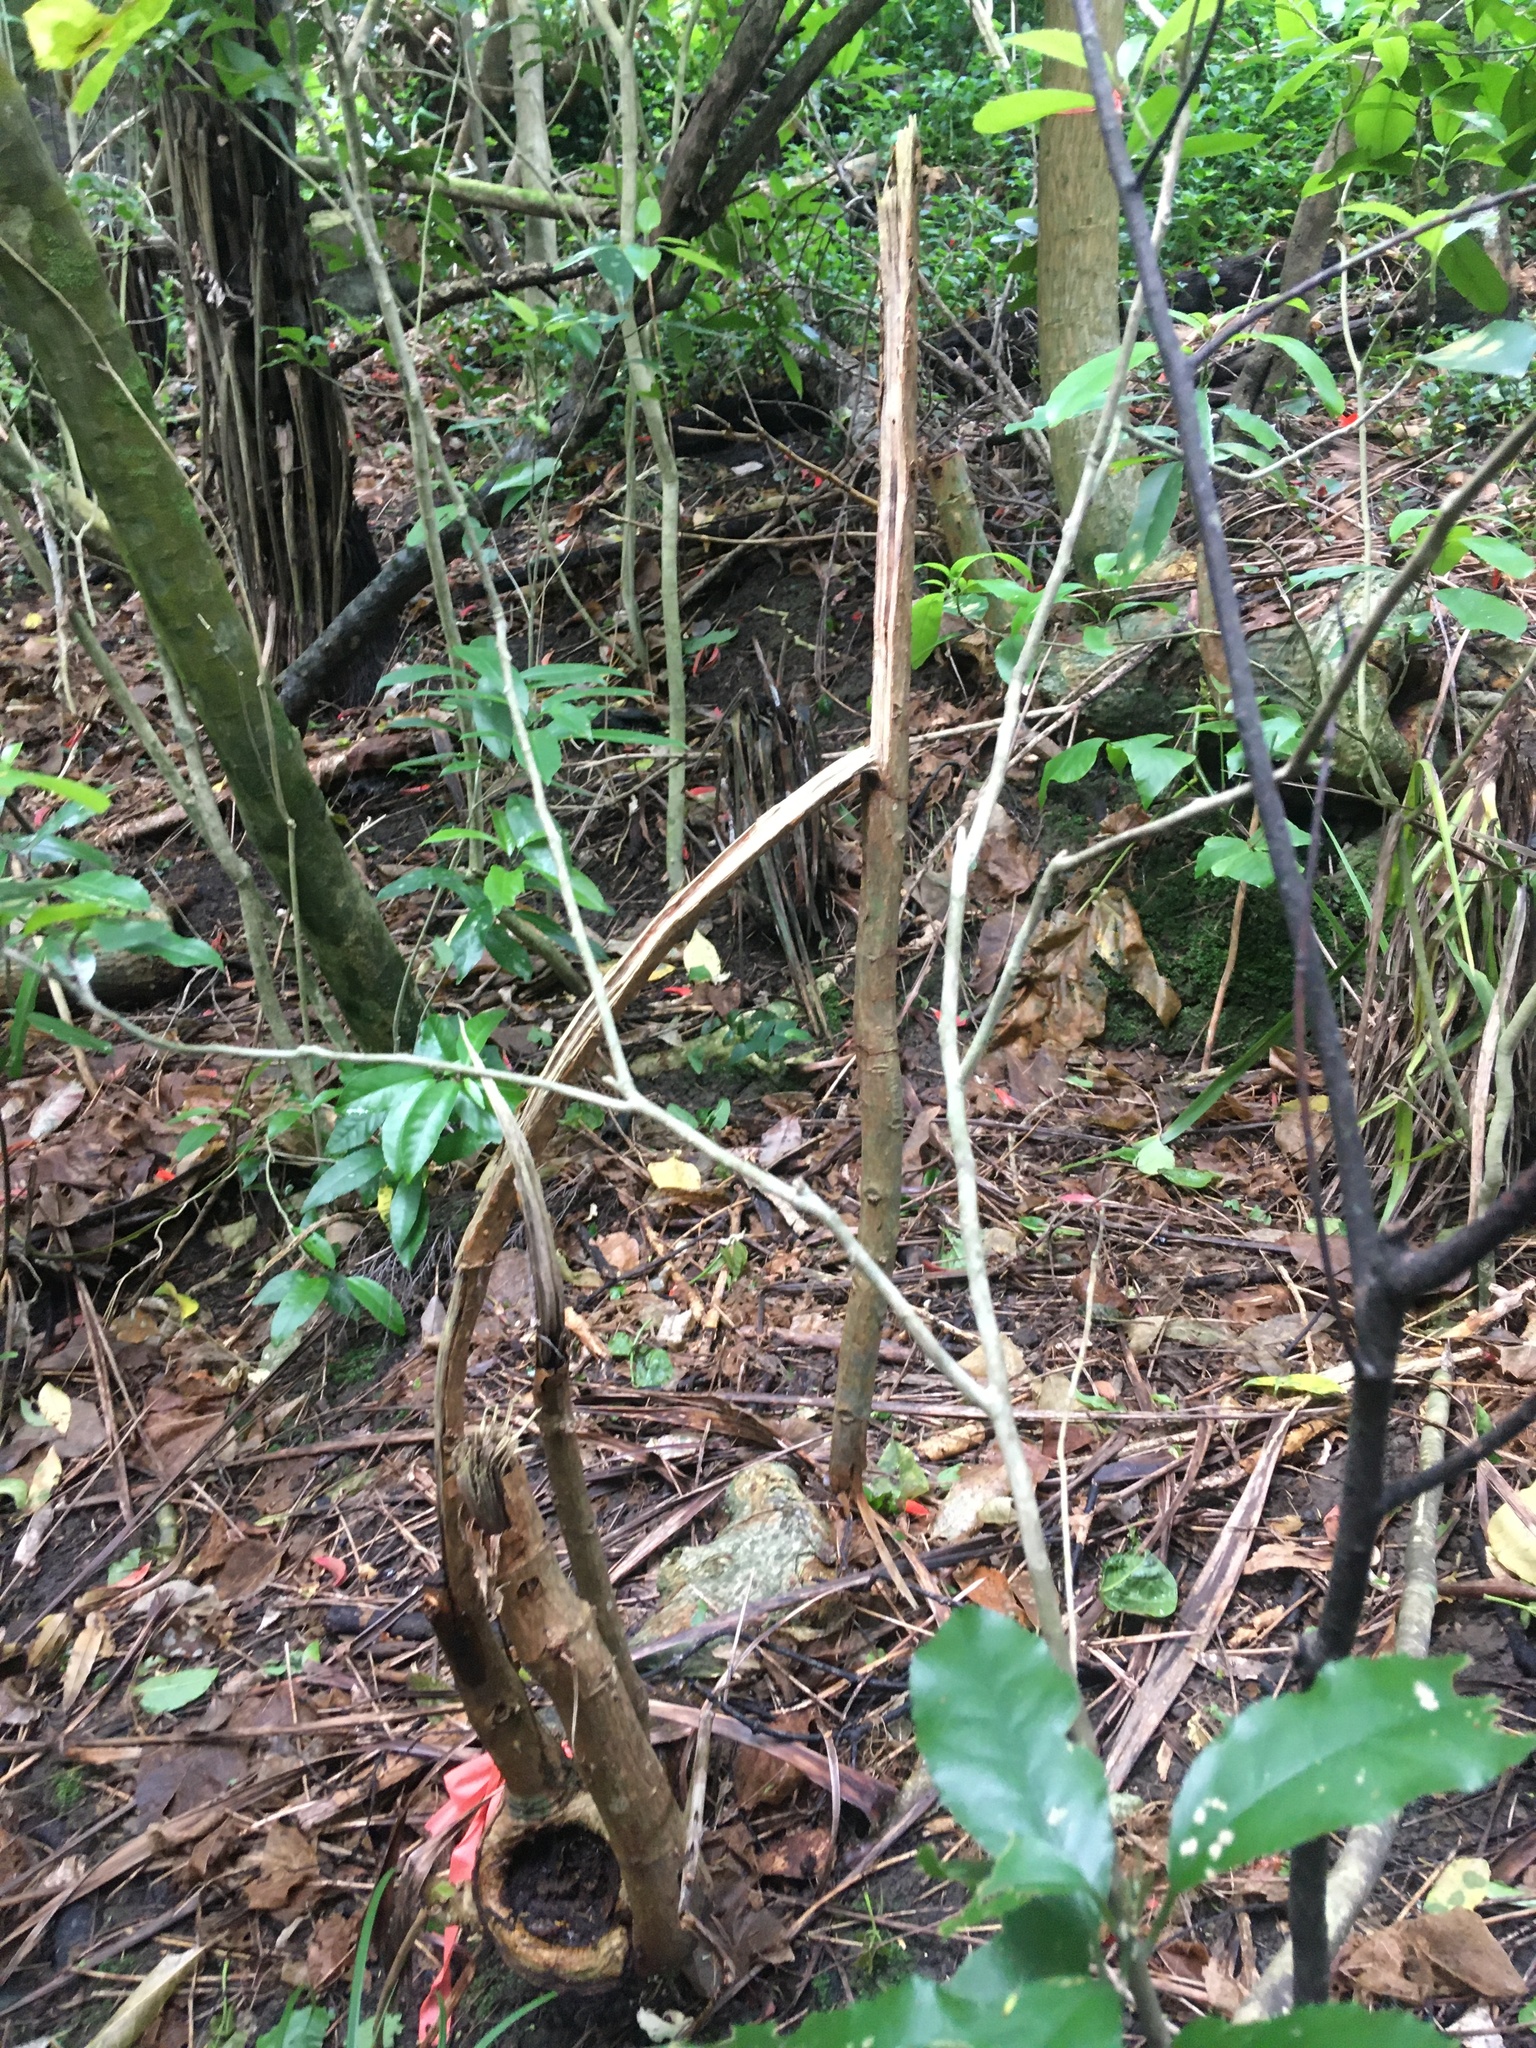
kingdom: Plantae
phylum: Tracheophyta
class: Magnoliopsida
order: Malpighiales
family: Violaceae
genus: Melicytus
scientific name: Melicytus ramiflorus
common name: Mahoe
